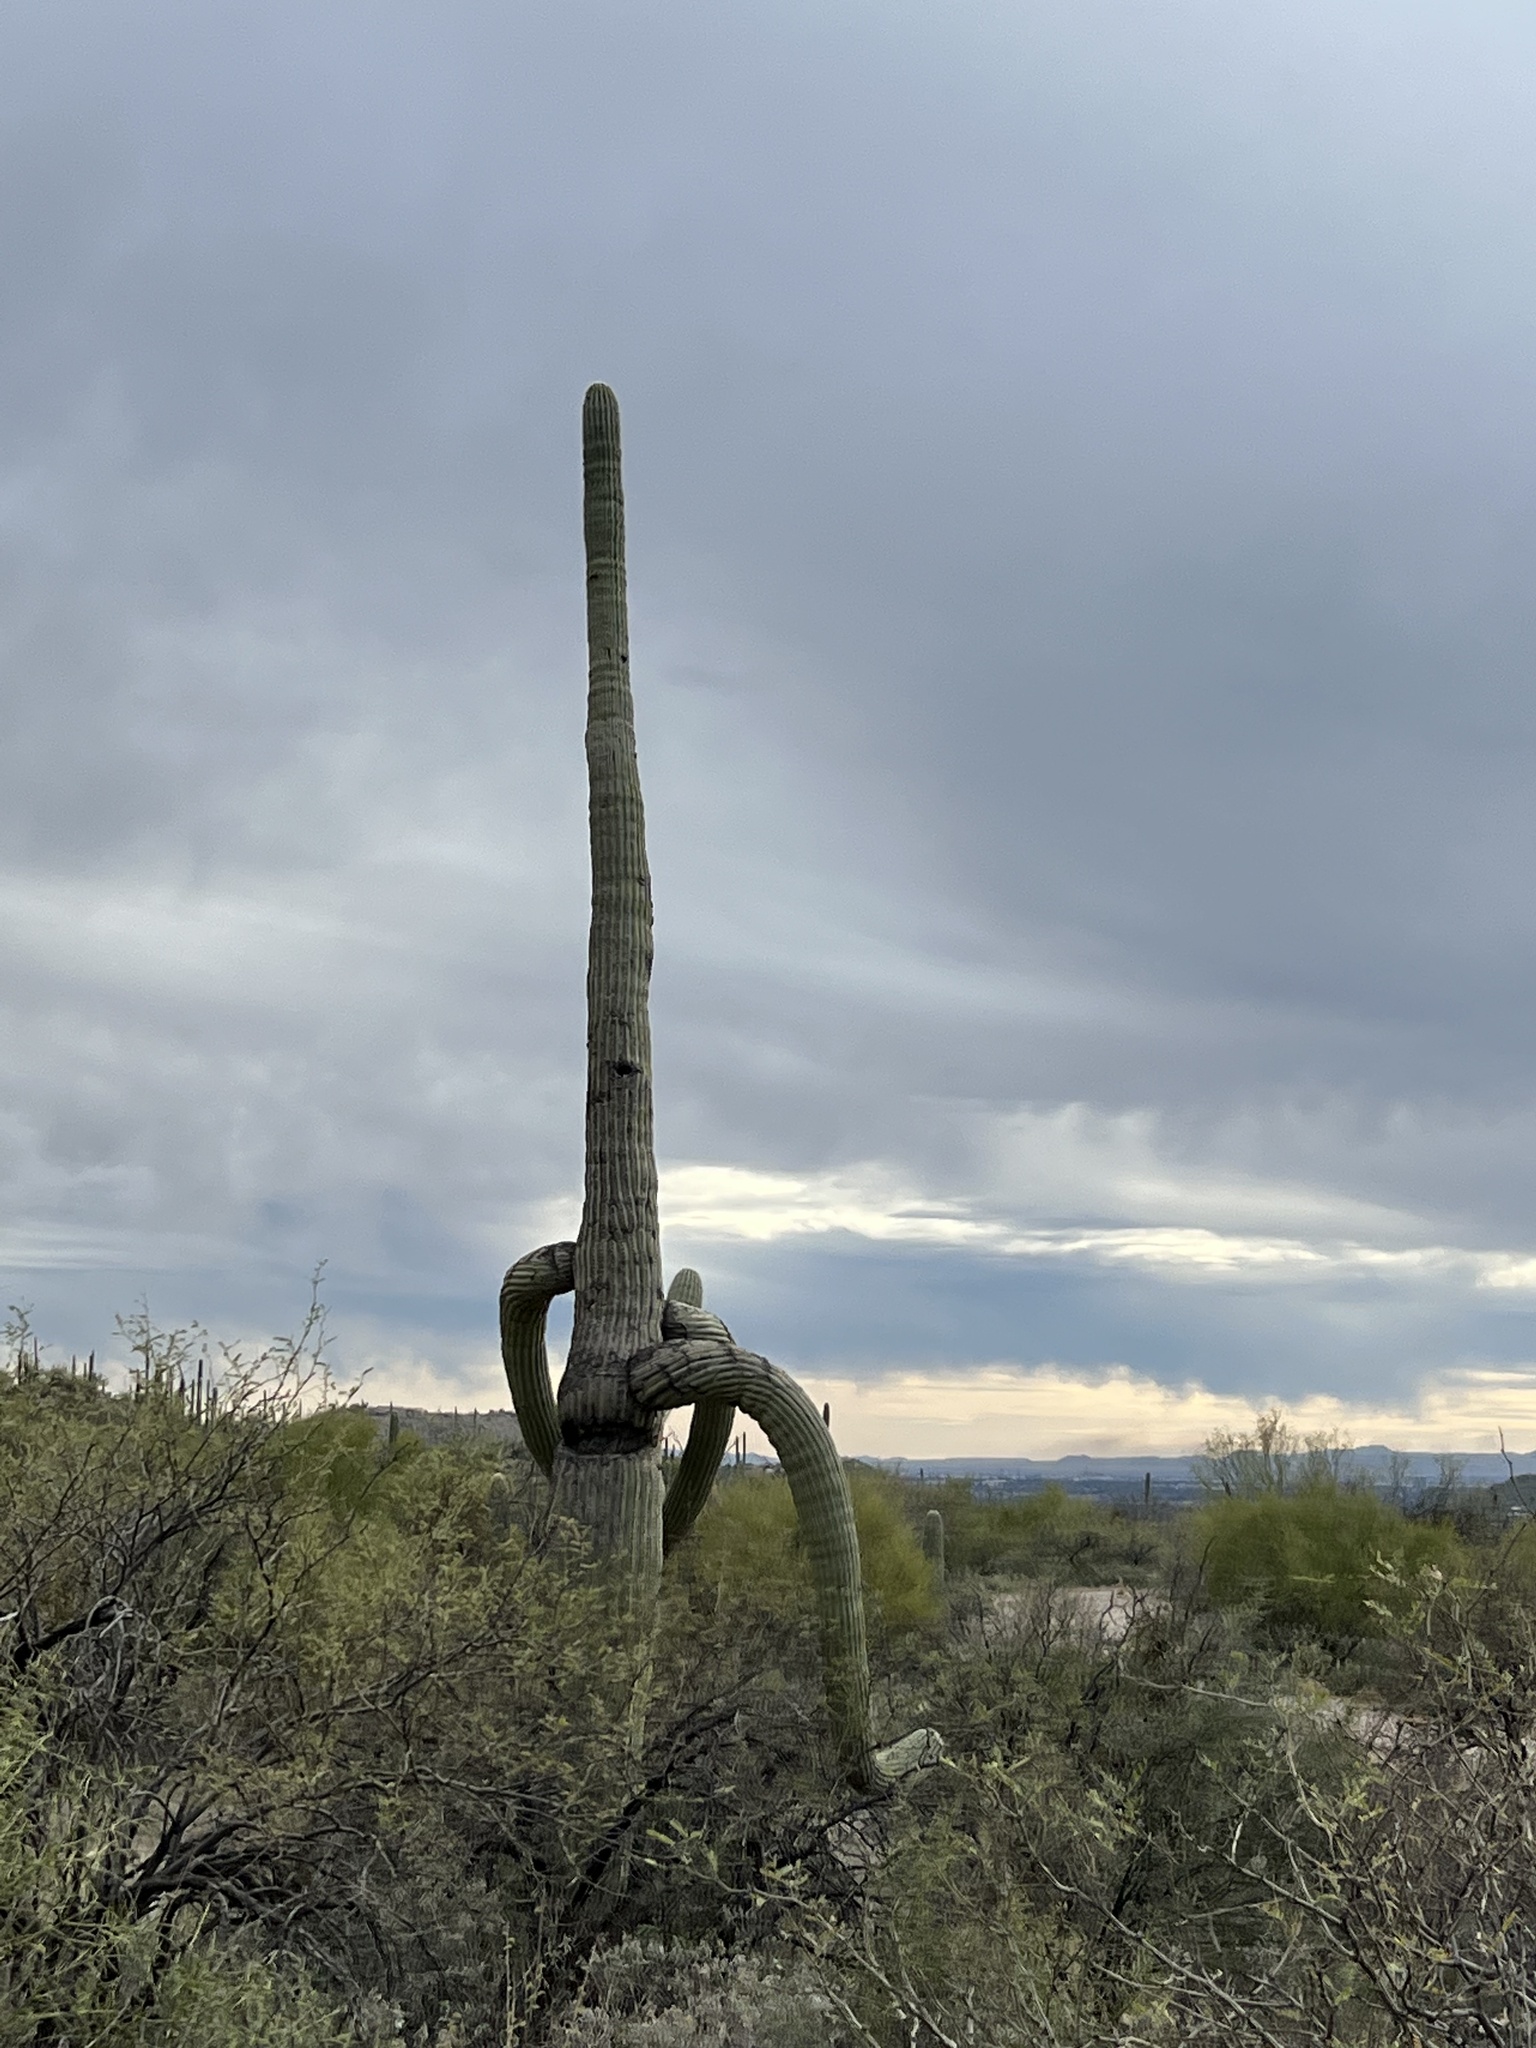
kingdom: Plantae
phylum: Tracheophyta
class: Magnoliopsida
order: Caryophyllales
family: Cactaceae
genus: Carnegiea
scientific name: Carnegiea gigantea
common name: Saguaro
